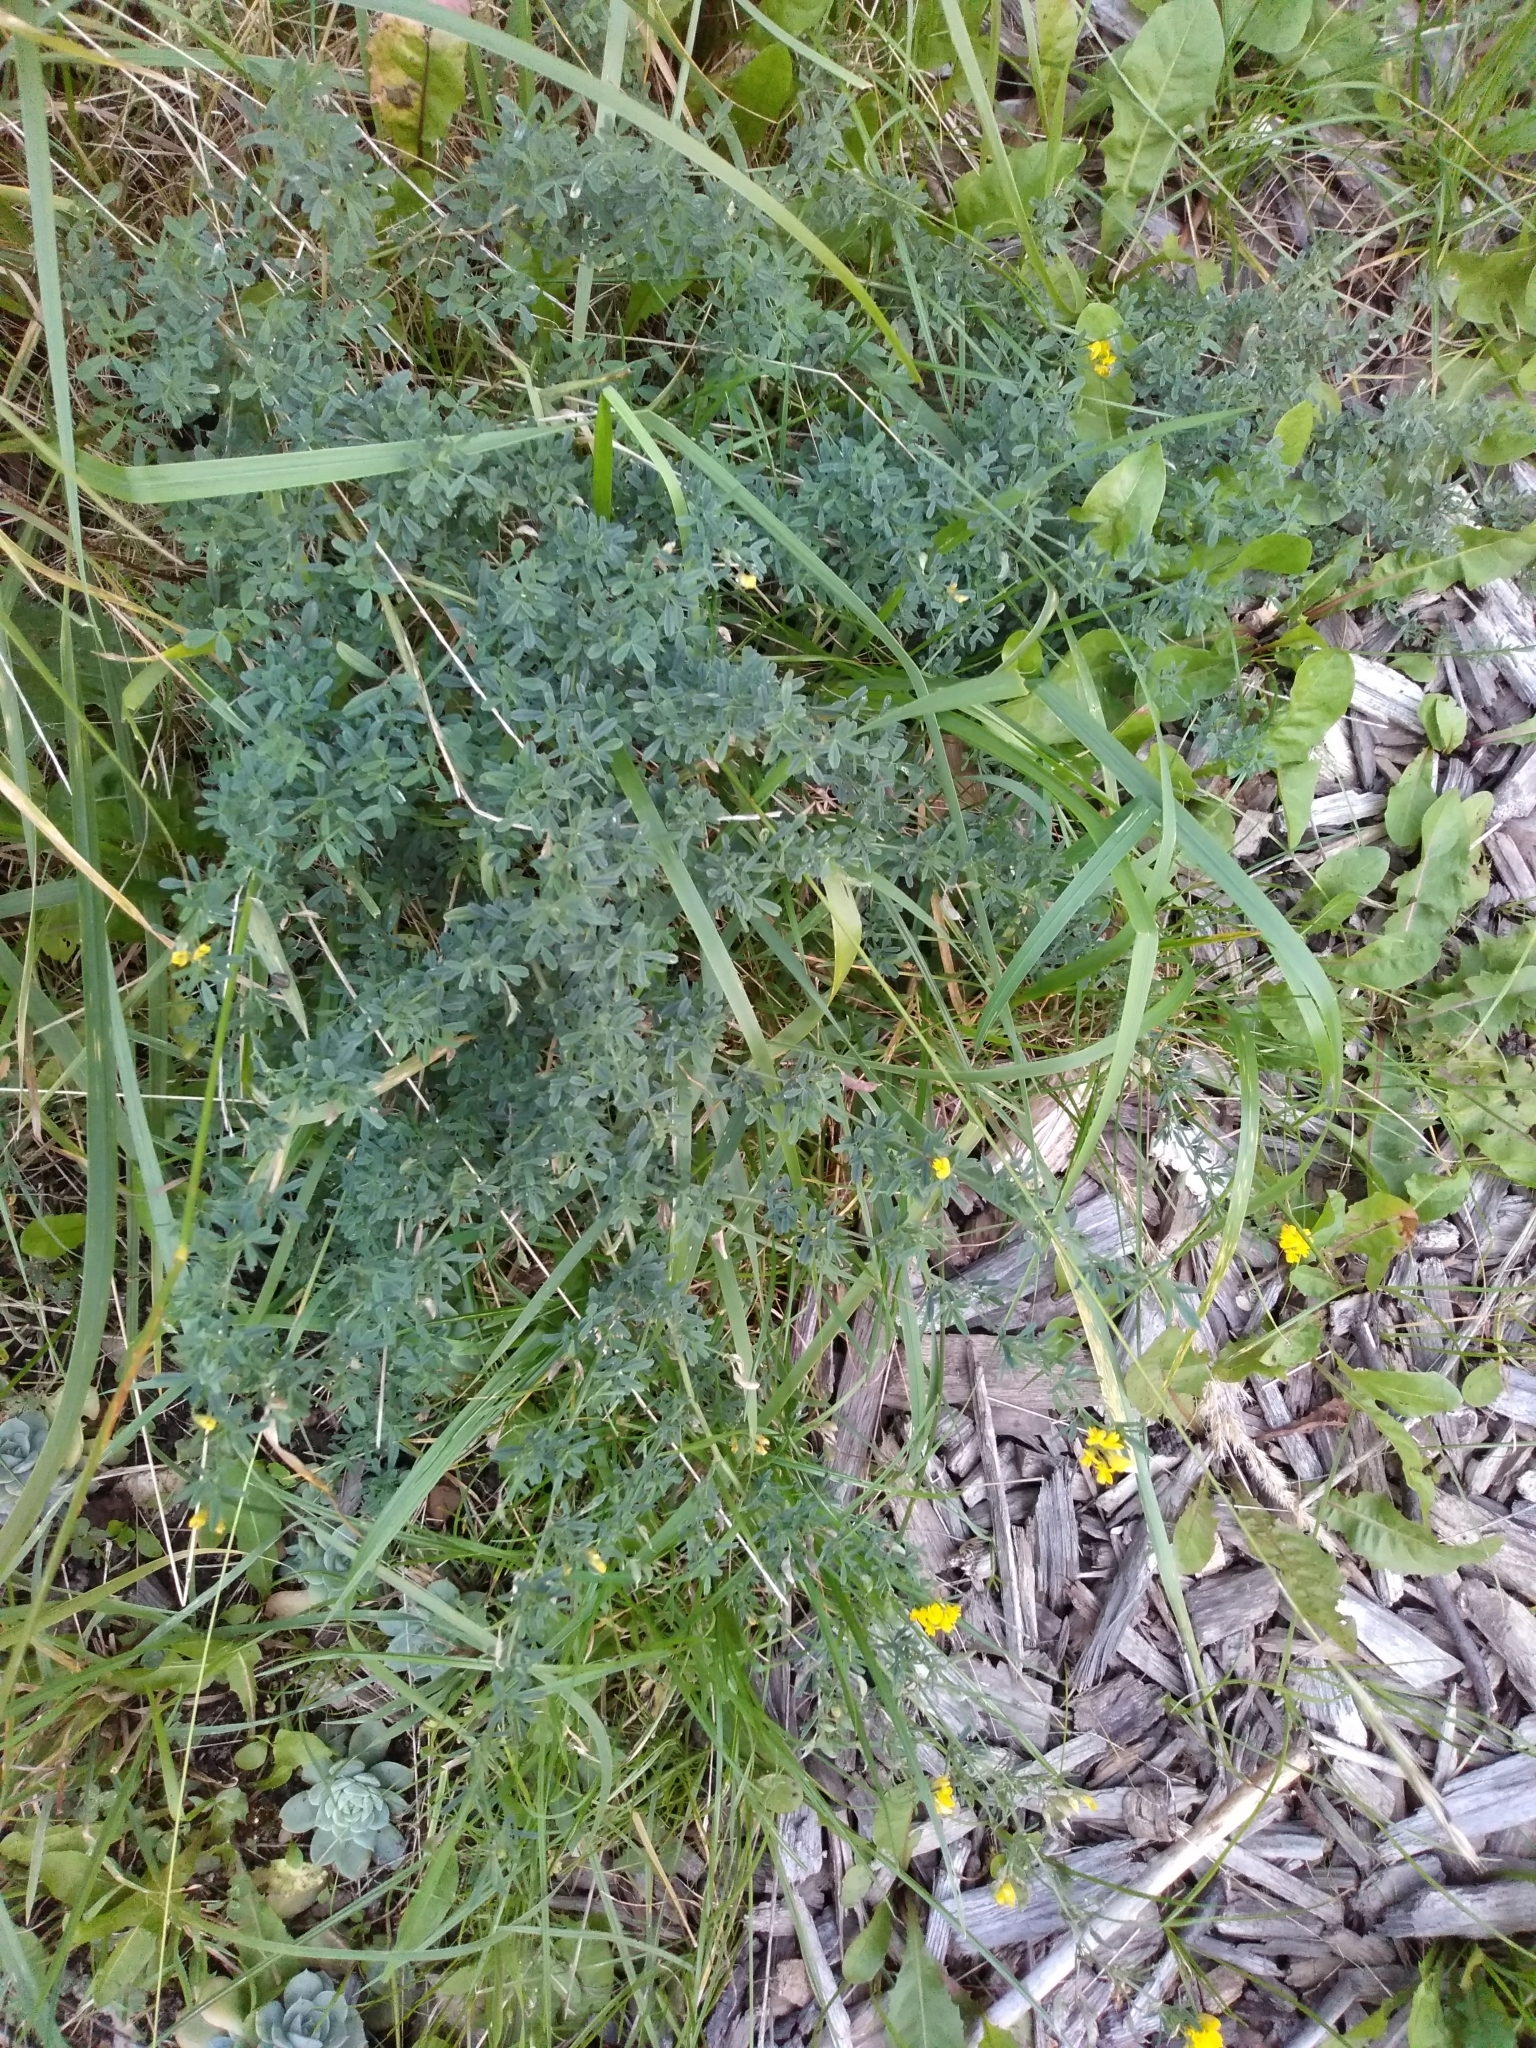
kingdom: Plantae
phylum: Tracheophyta
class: Magnoliopsida
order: Fabales
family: Fabaceae
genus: Medicago
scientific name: Medicago falcata
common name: Sickle medick
